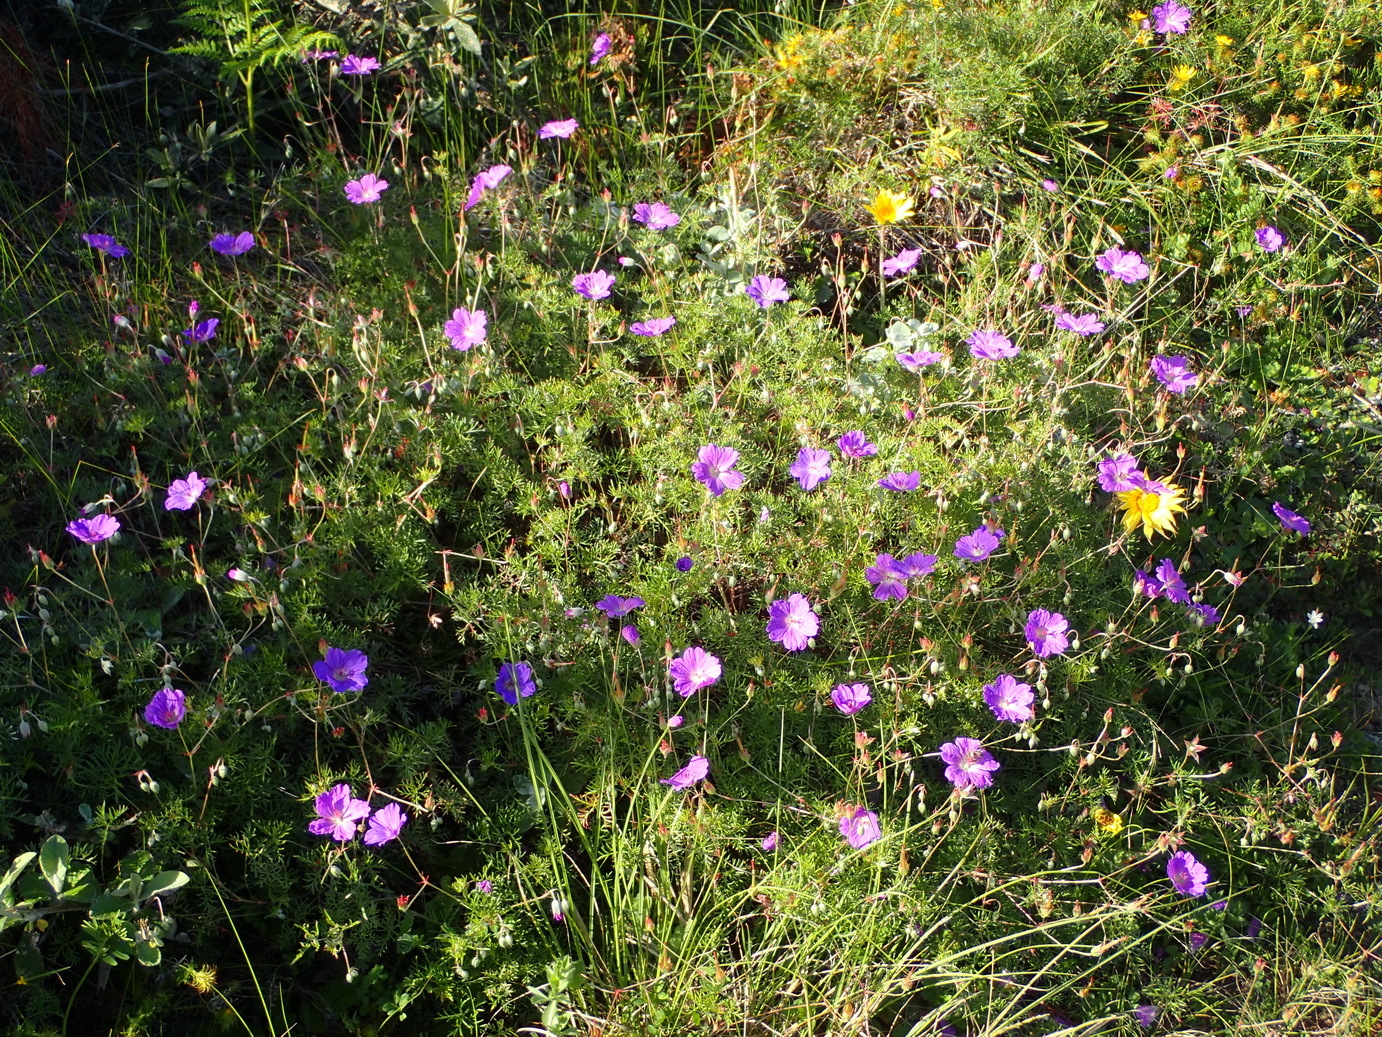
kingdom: Plantae
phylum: Tracheophyta
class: Magnoliopsida
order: Geraniales
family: Geraniaceae
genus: Geranium
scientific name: Geranium incanum
